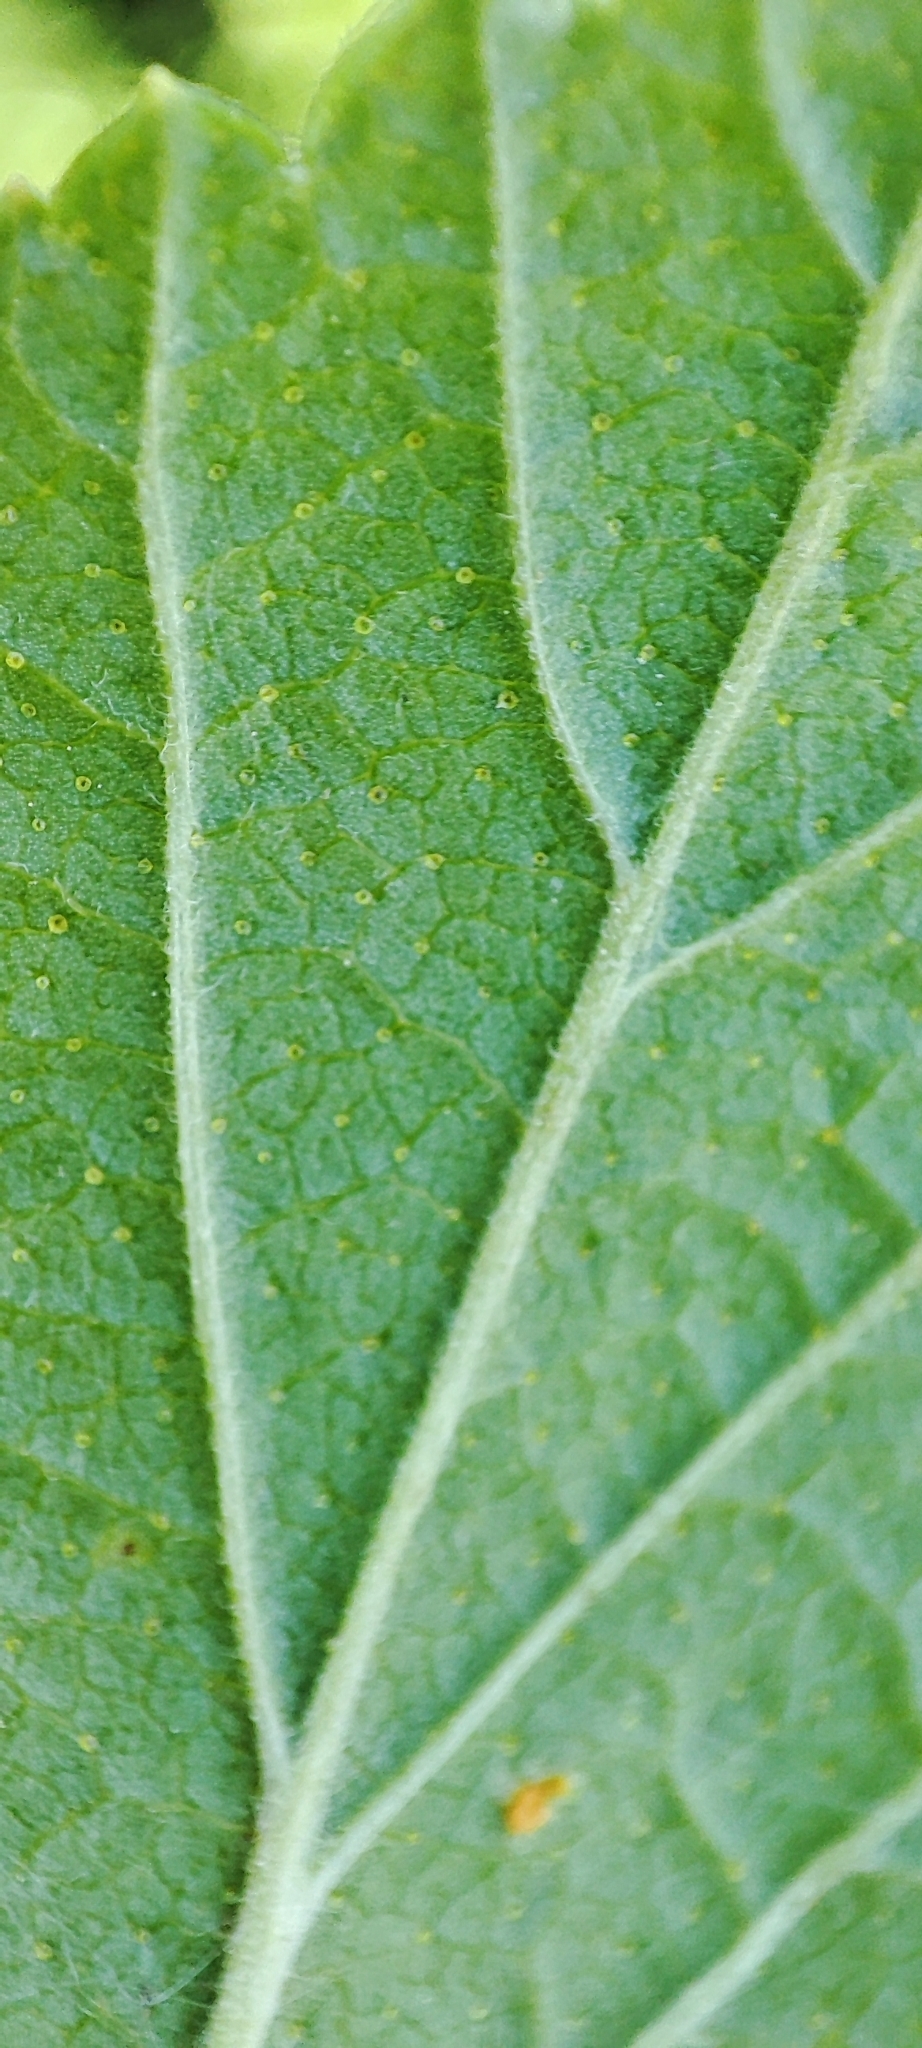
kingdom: Plantae
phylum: Tracheophyta
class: Magnoliopsida
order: Saxifragales
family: Grossulariaceae
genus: Ribes
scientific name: Ribes nigrum
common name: Black currant
